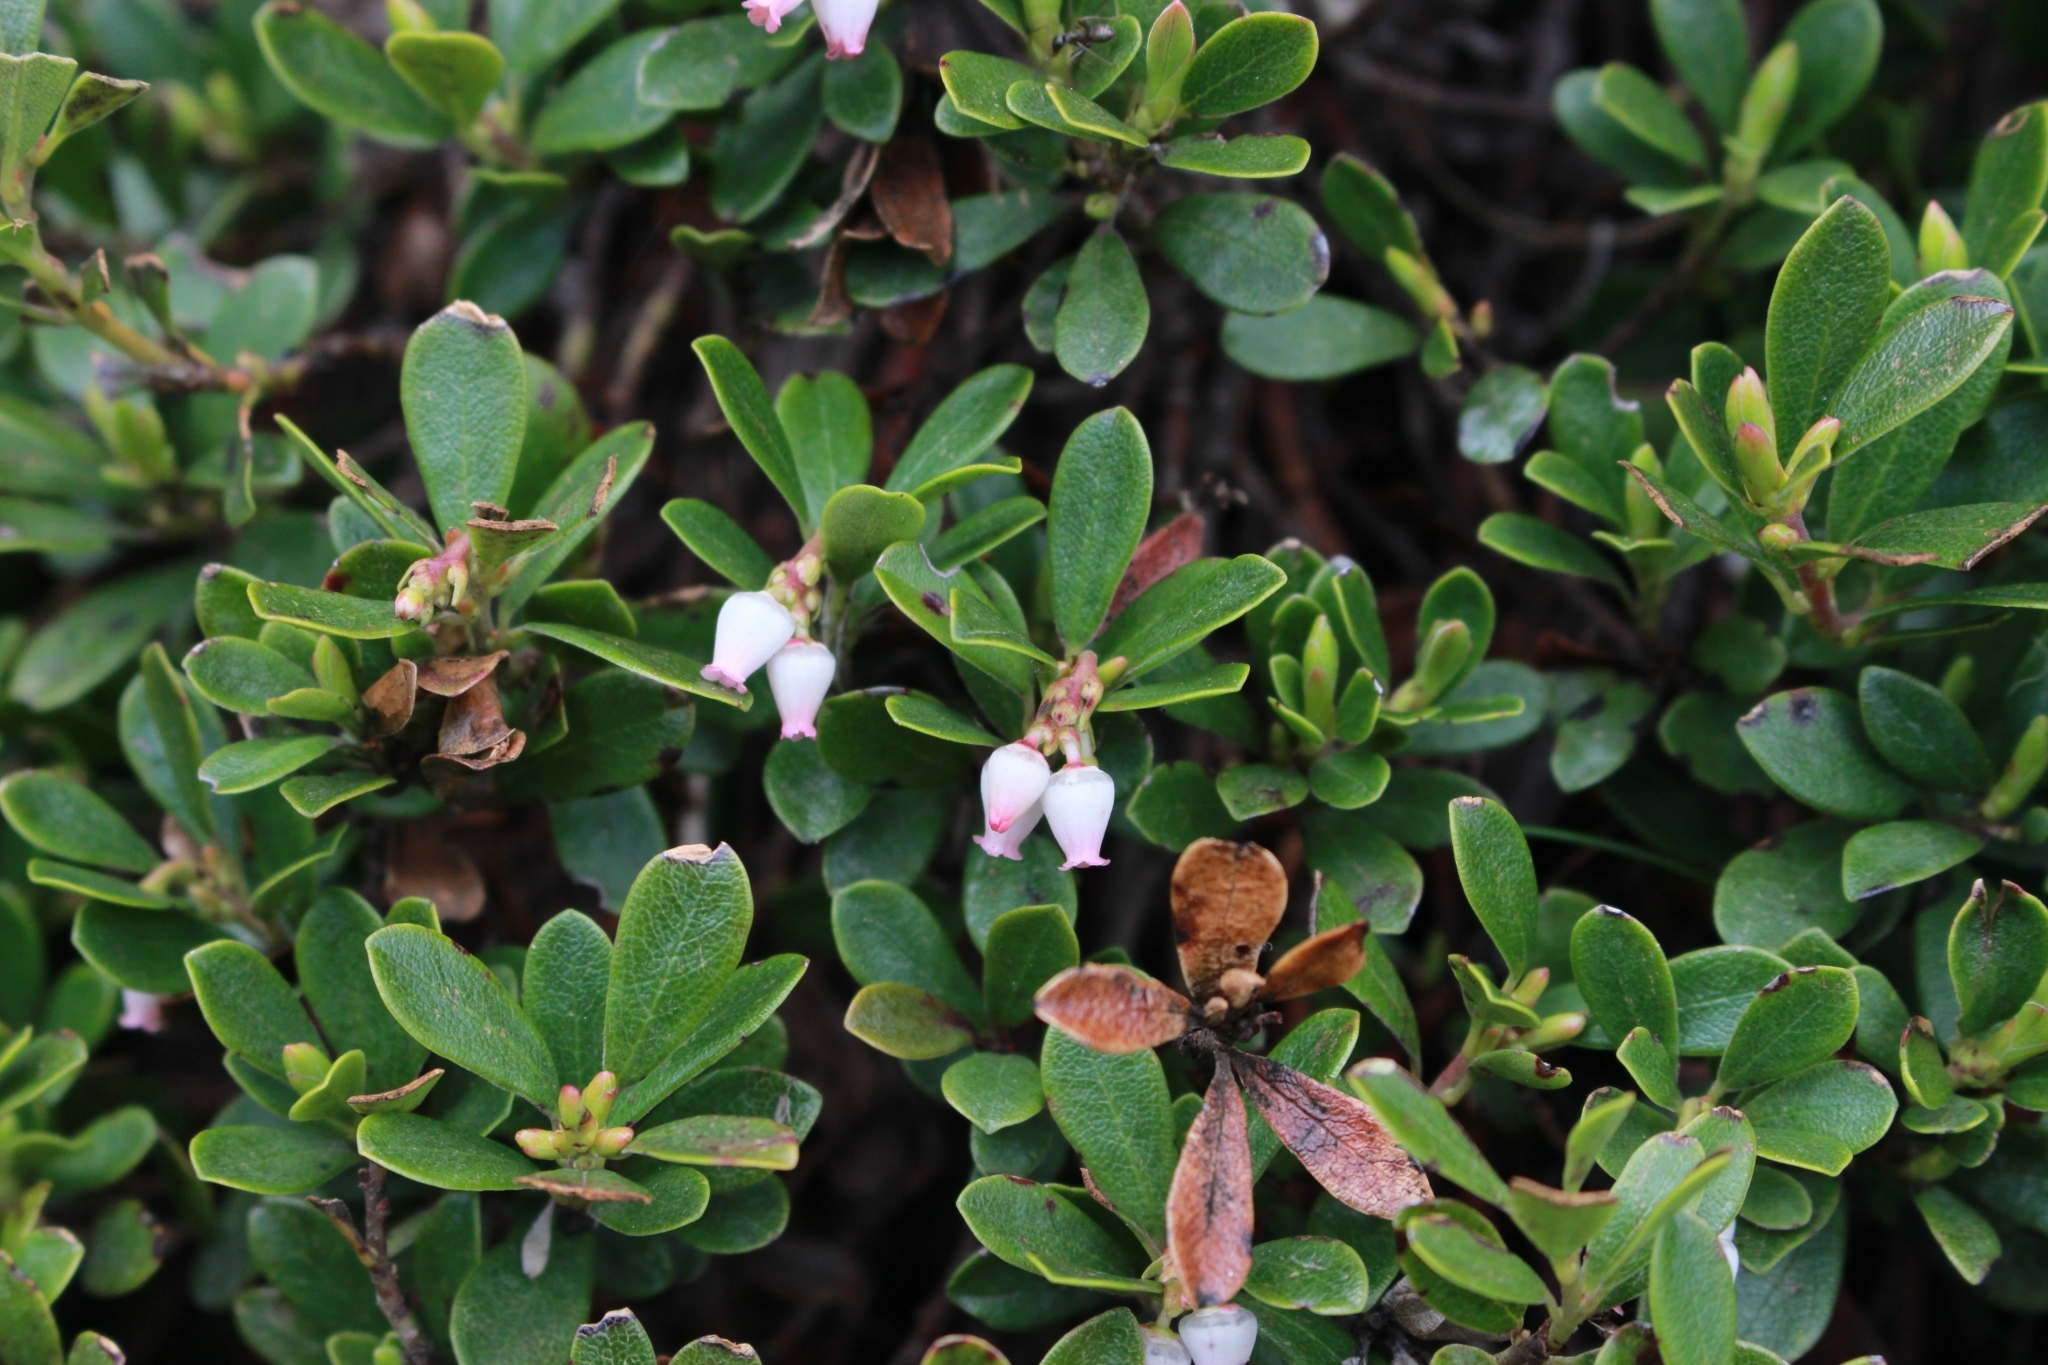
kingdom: Plantae
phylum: Tracheophyta
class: Magnoliopsida
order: Ericales
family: Ericaceae
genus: Arctostaphylos
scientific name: Arctostaphylos uva-ursi
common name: Bearberry
